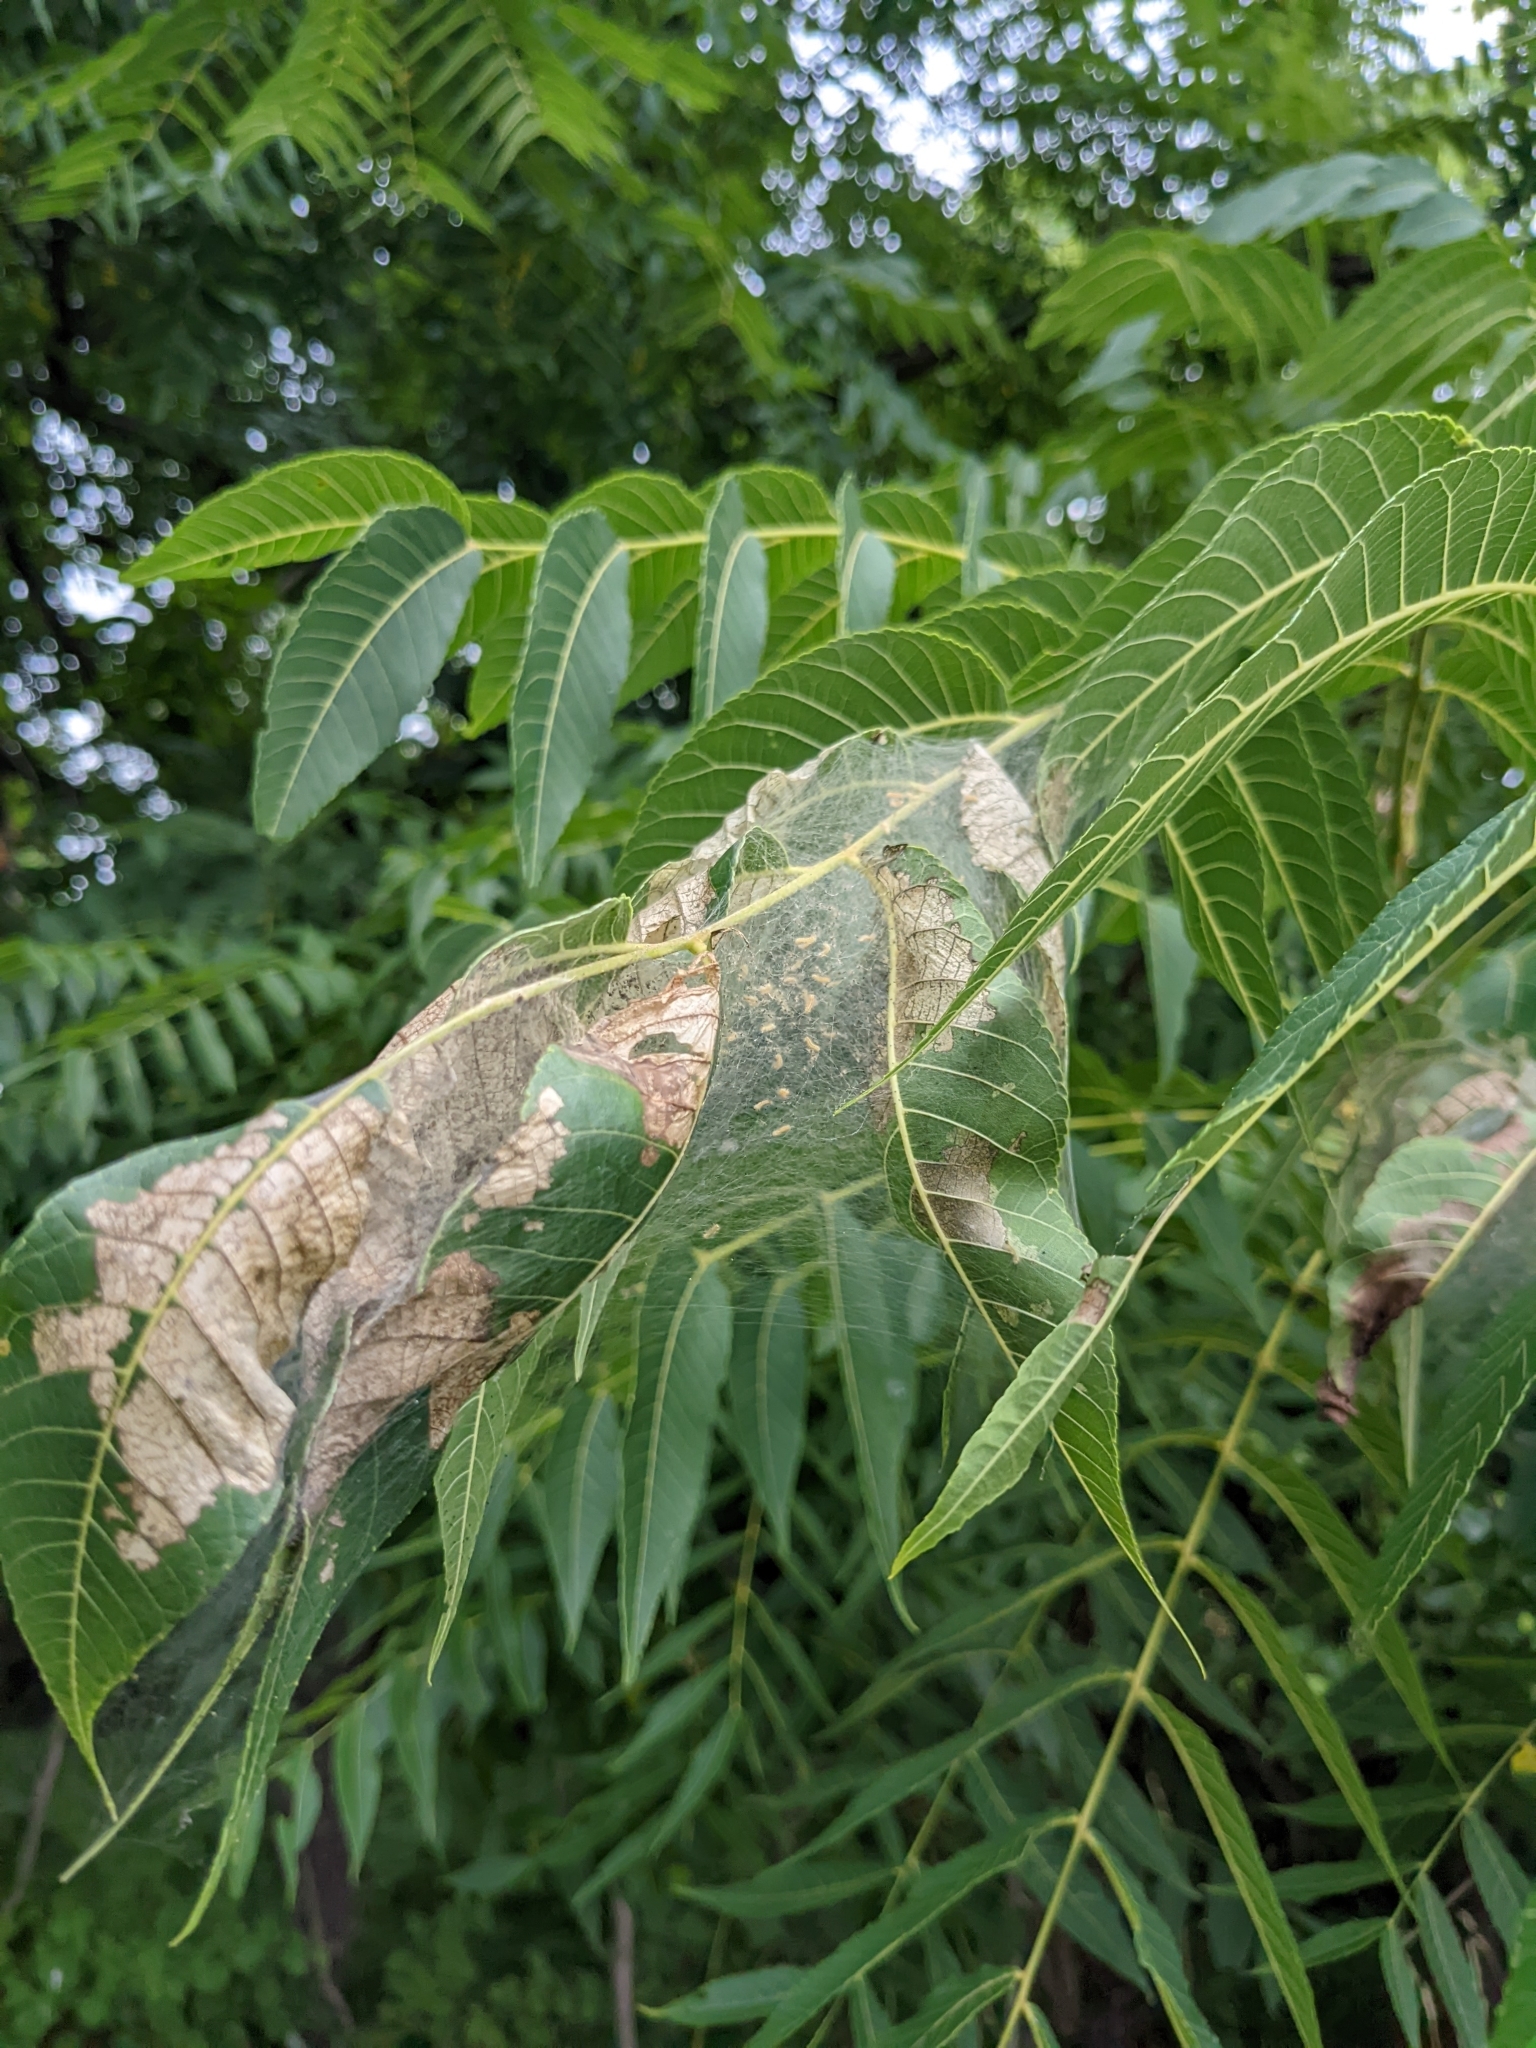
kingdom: Animalia
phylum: Arthropoda
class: Insecta
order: Lepidoptera
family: Erebidae
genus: Hyphantria
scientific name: Hyphantria cunea
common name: American white moth
